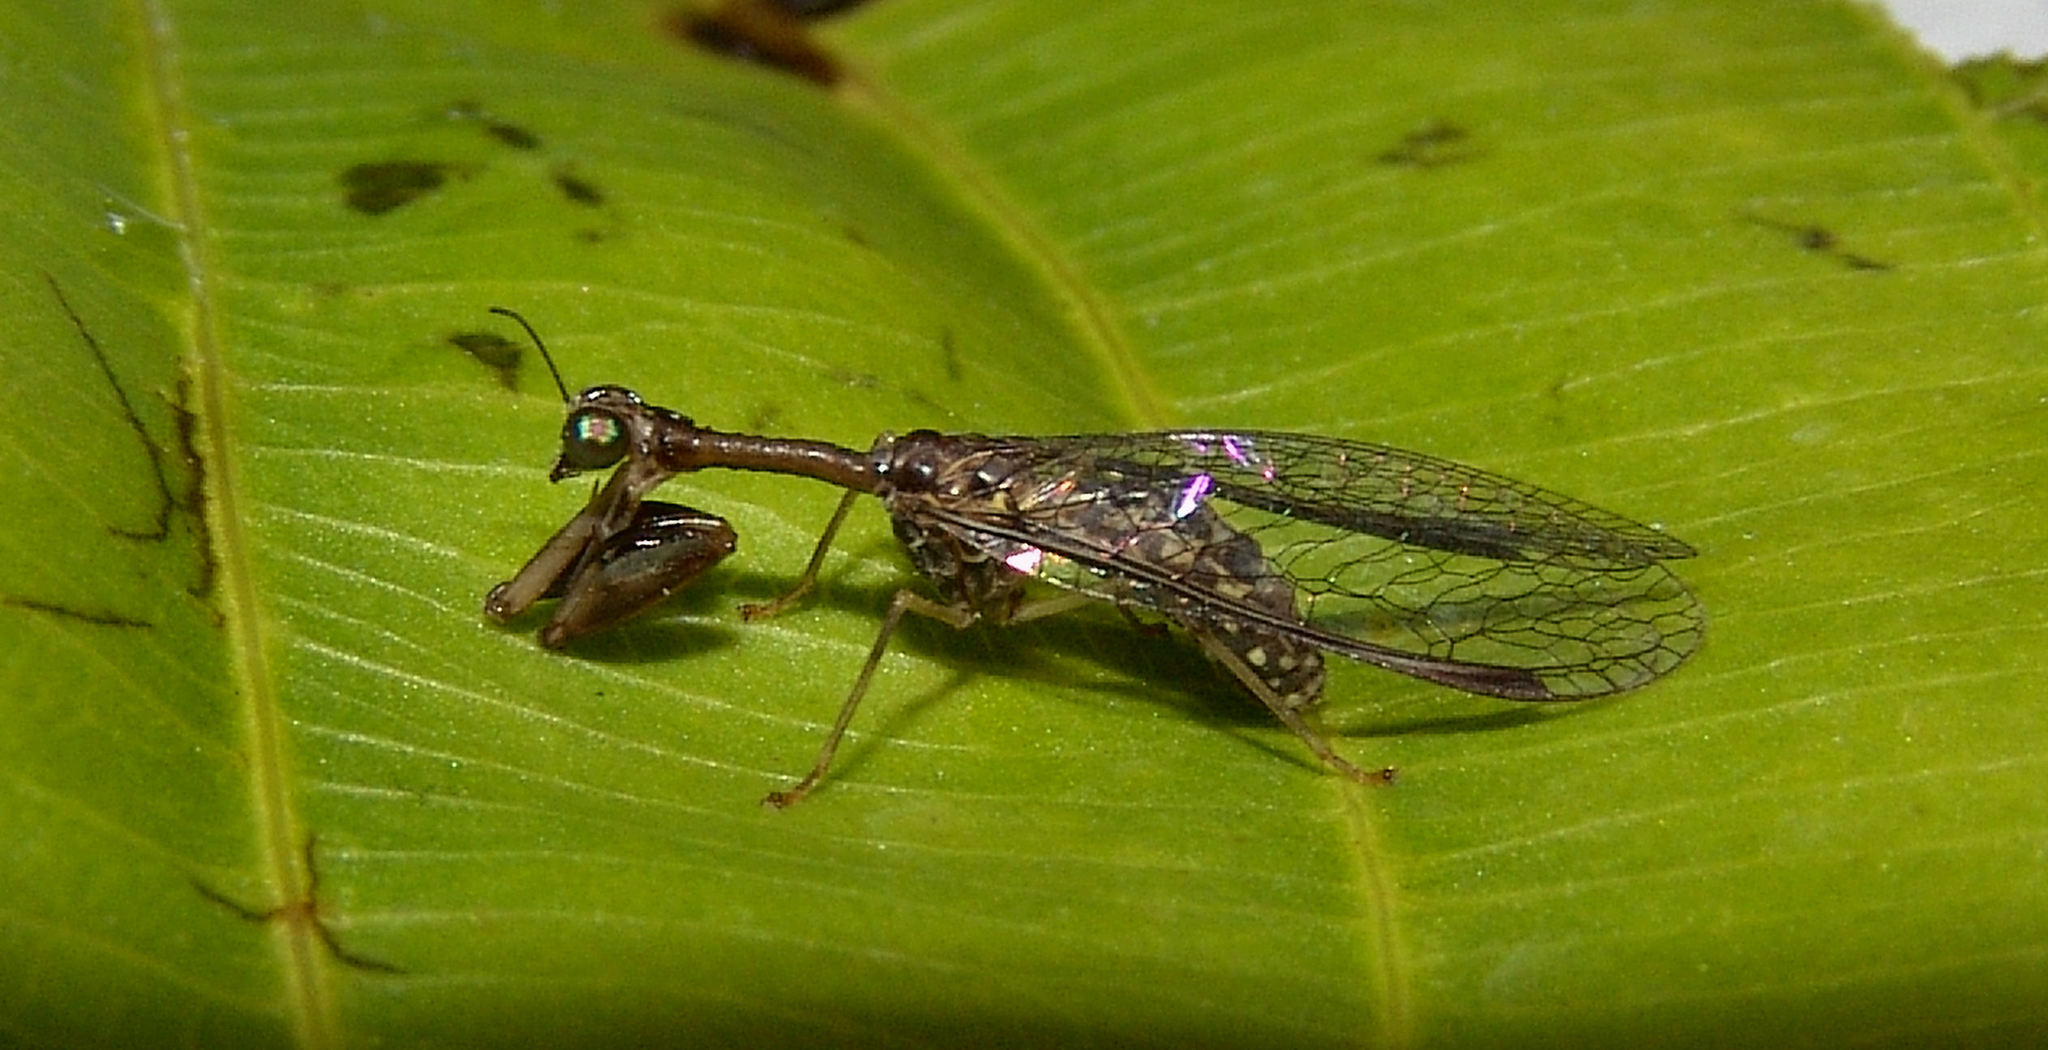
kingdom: Animalia
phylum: Arthropoda
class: Insecta
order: Neuroptera
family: Mantispidae
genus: Dicromantispa
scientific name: Dicromantispa sayi
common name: Say's mantidfly
